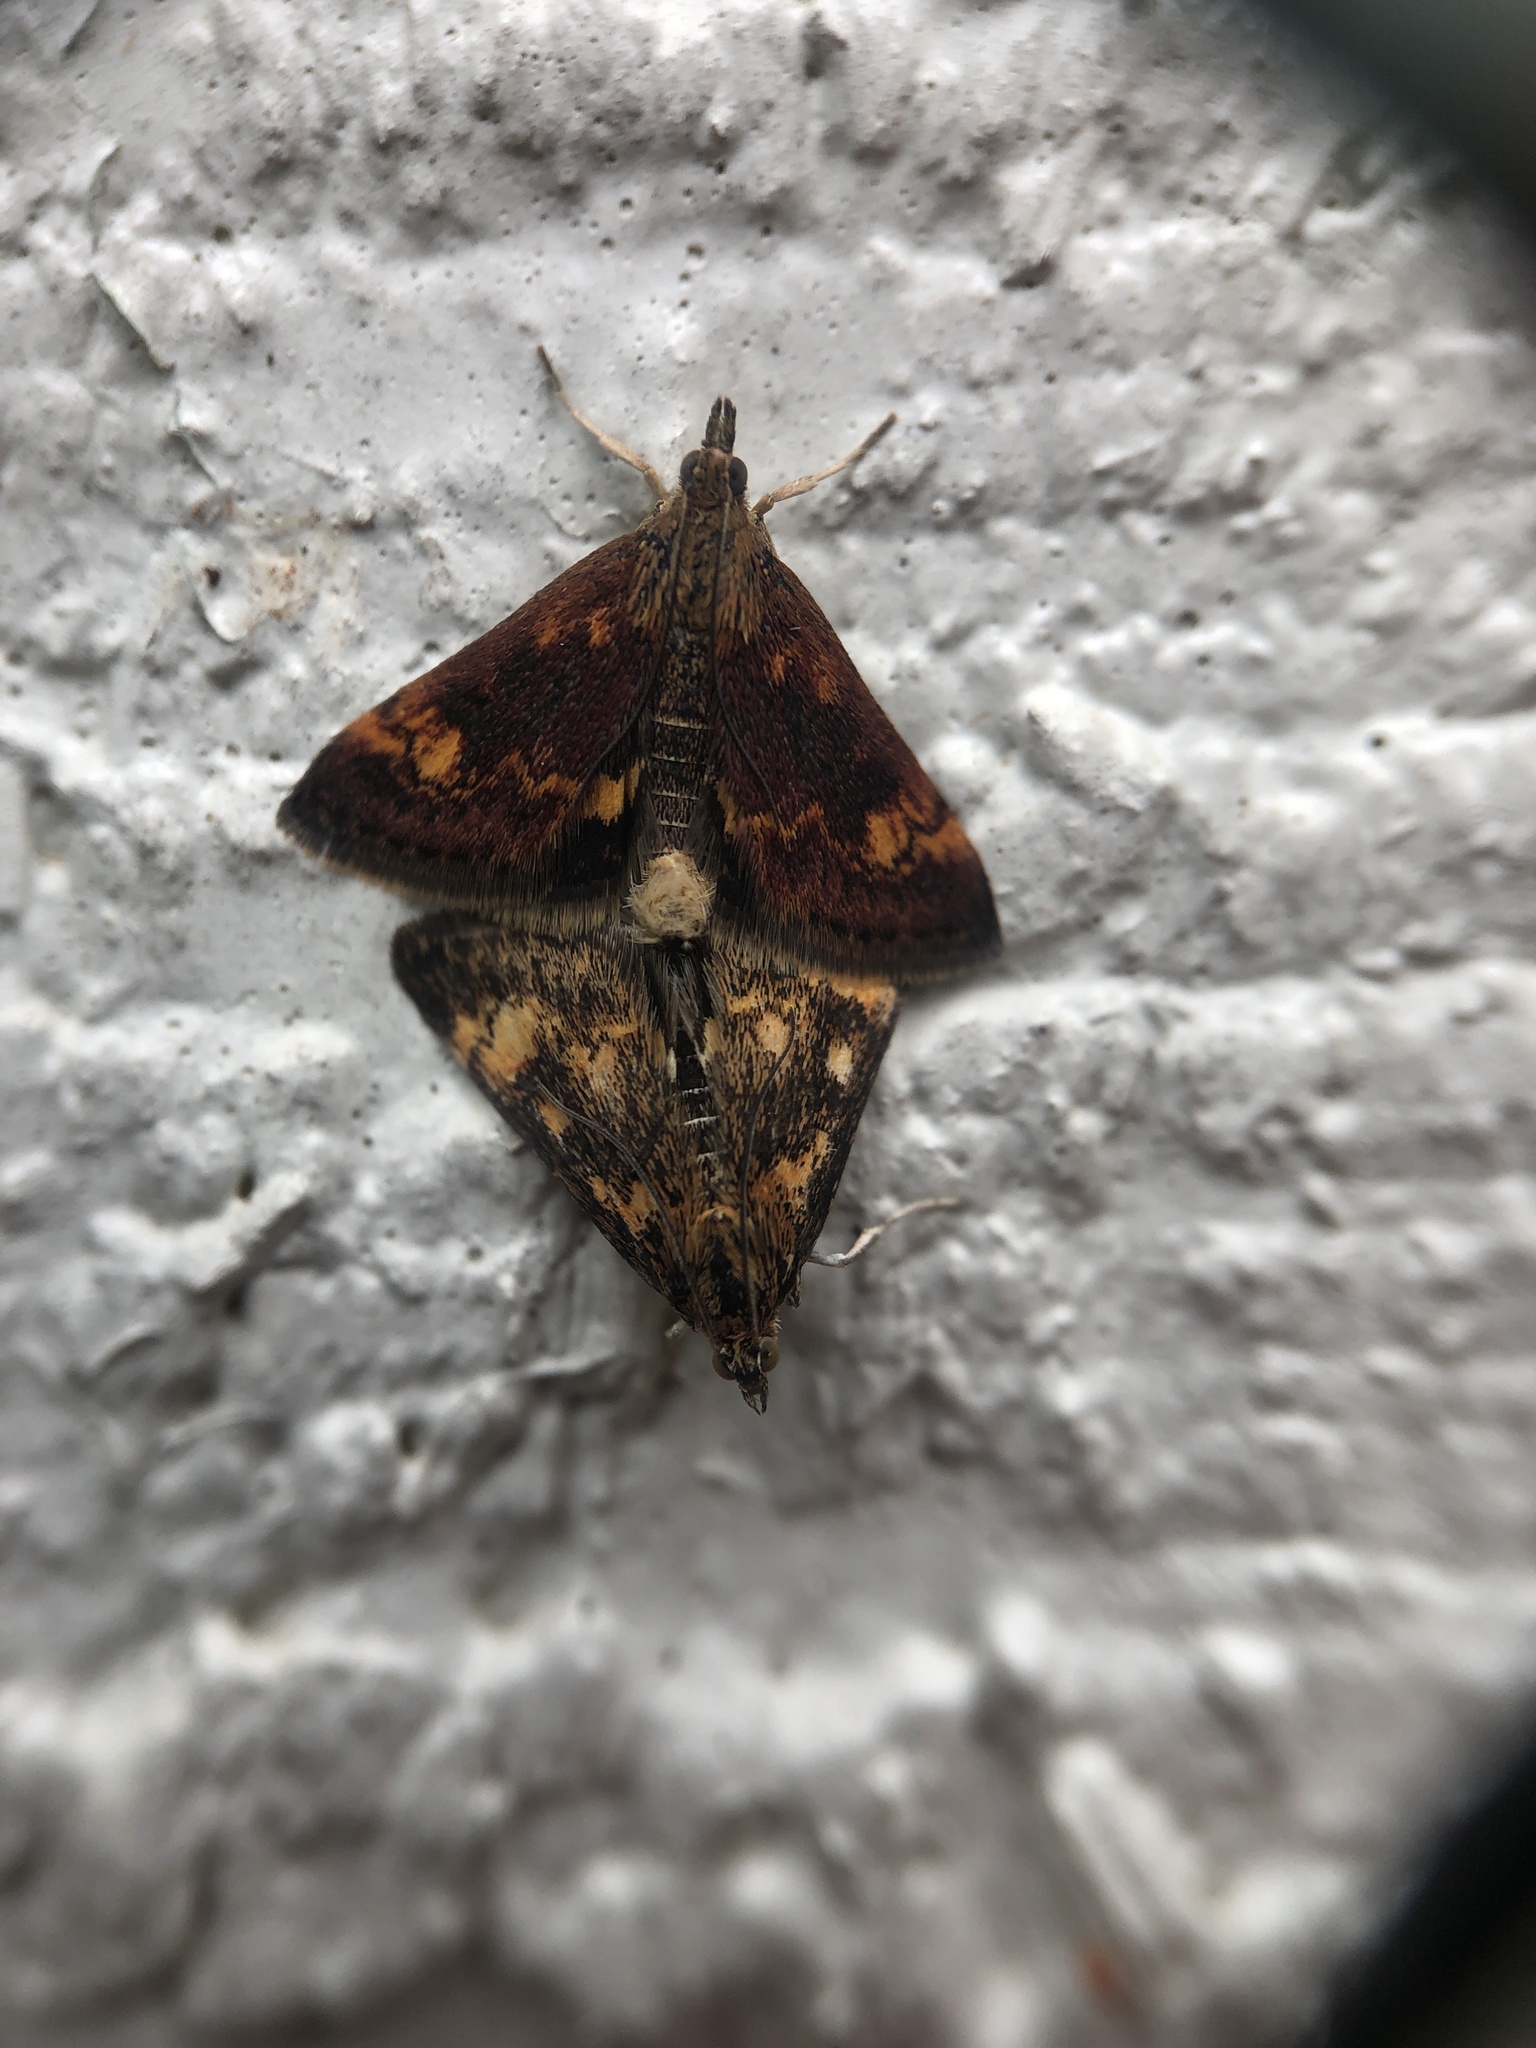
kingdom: Animalia
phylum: Arthropoda
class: Insecta
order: Lepidoptera
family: Crambidae
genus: Pyrausta
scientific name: Pyrausta orphisalis
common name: Orange mint moth
